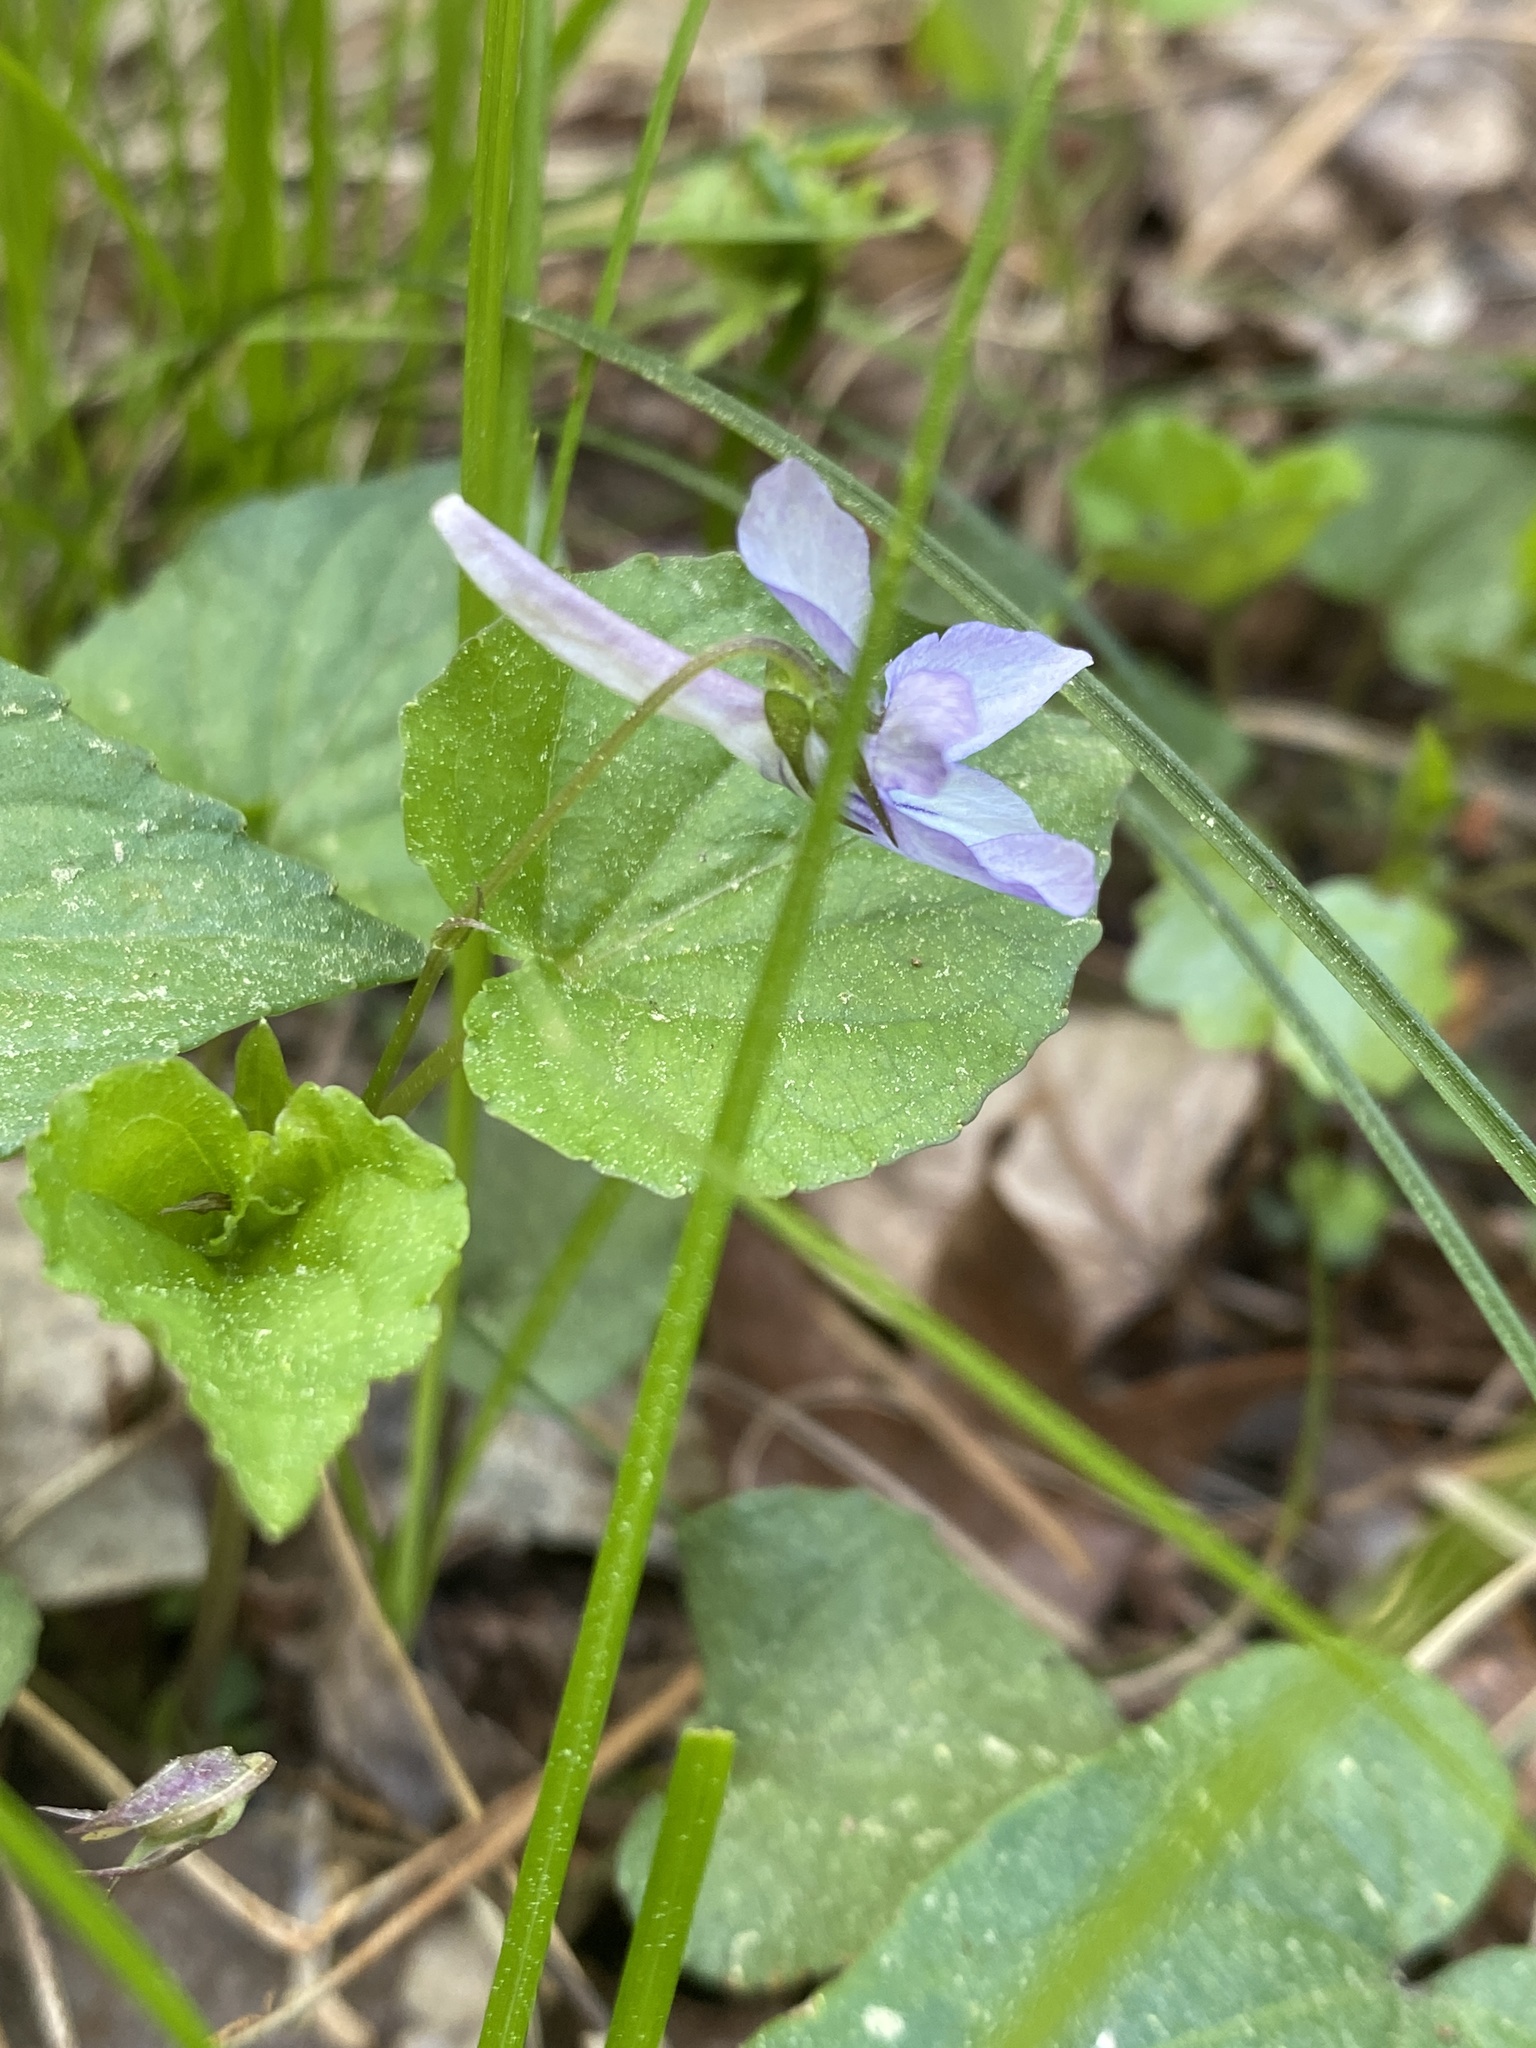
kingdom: Plantae
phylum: Tracheophyta
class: Magnoliopsida
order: Malpighiales
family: Violaceae
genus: Viola
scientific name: Viola rostrata
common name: Long-spur violet
